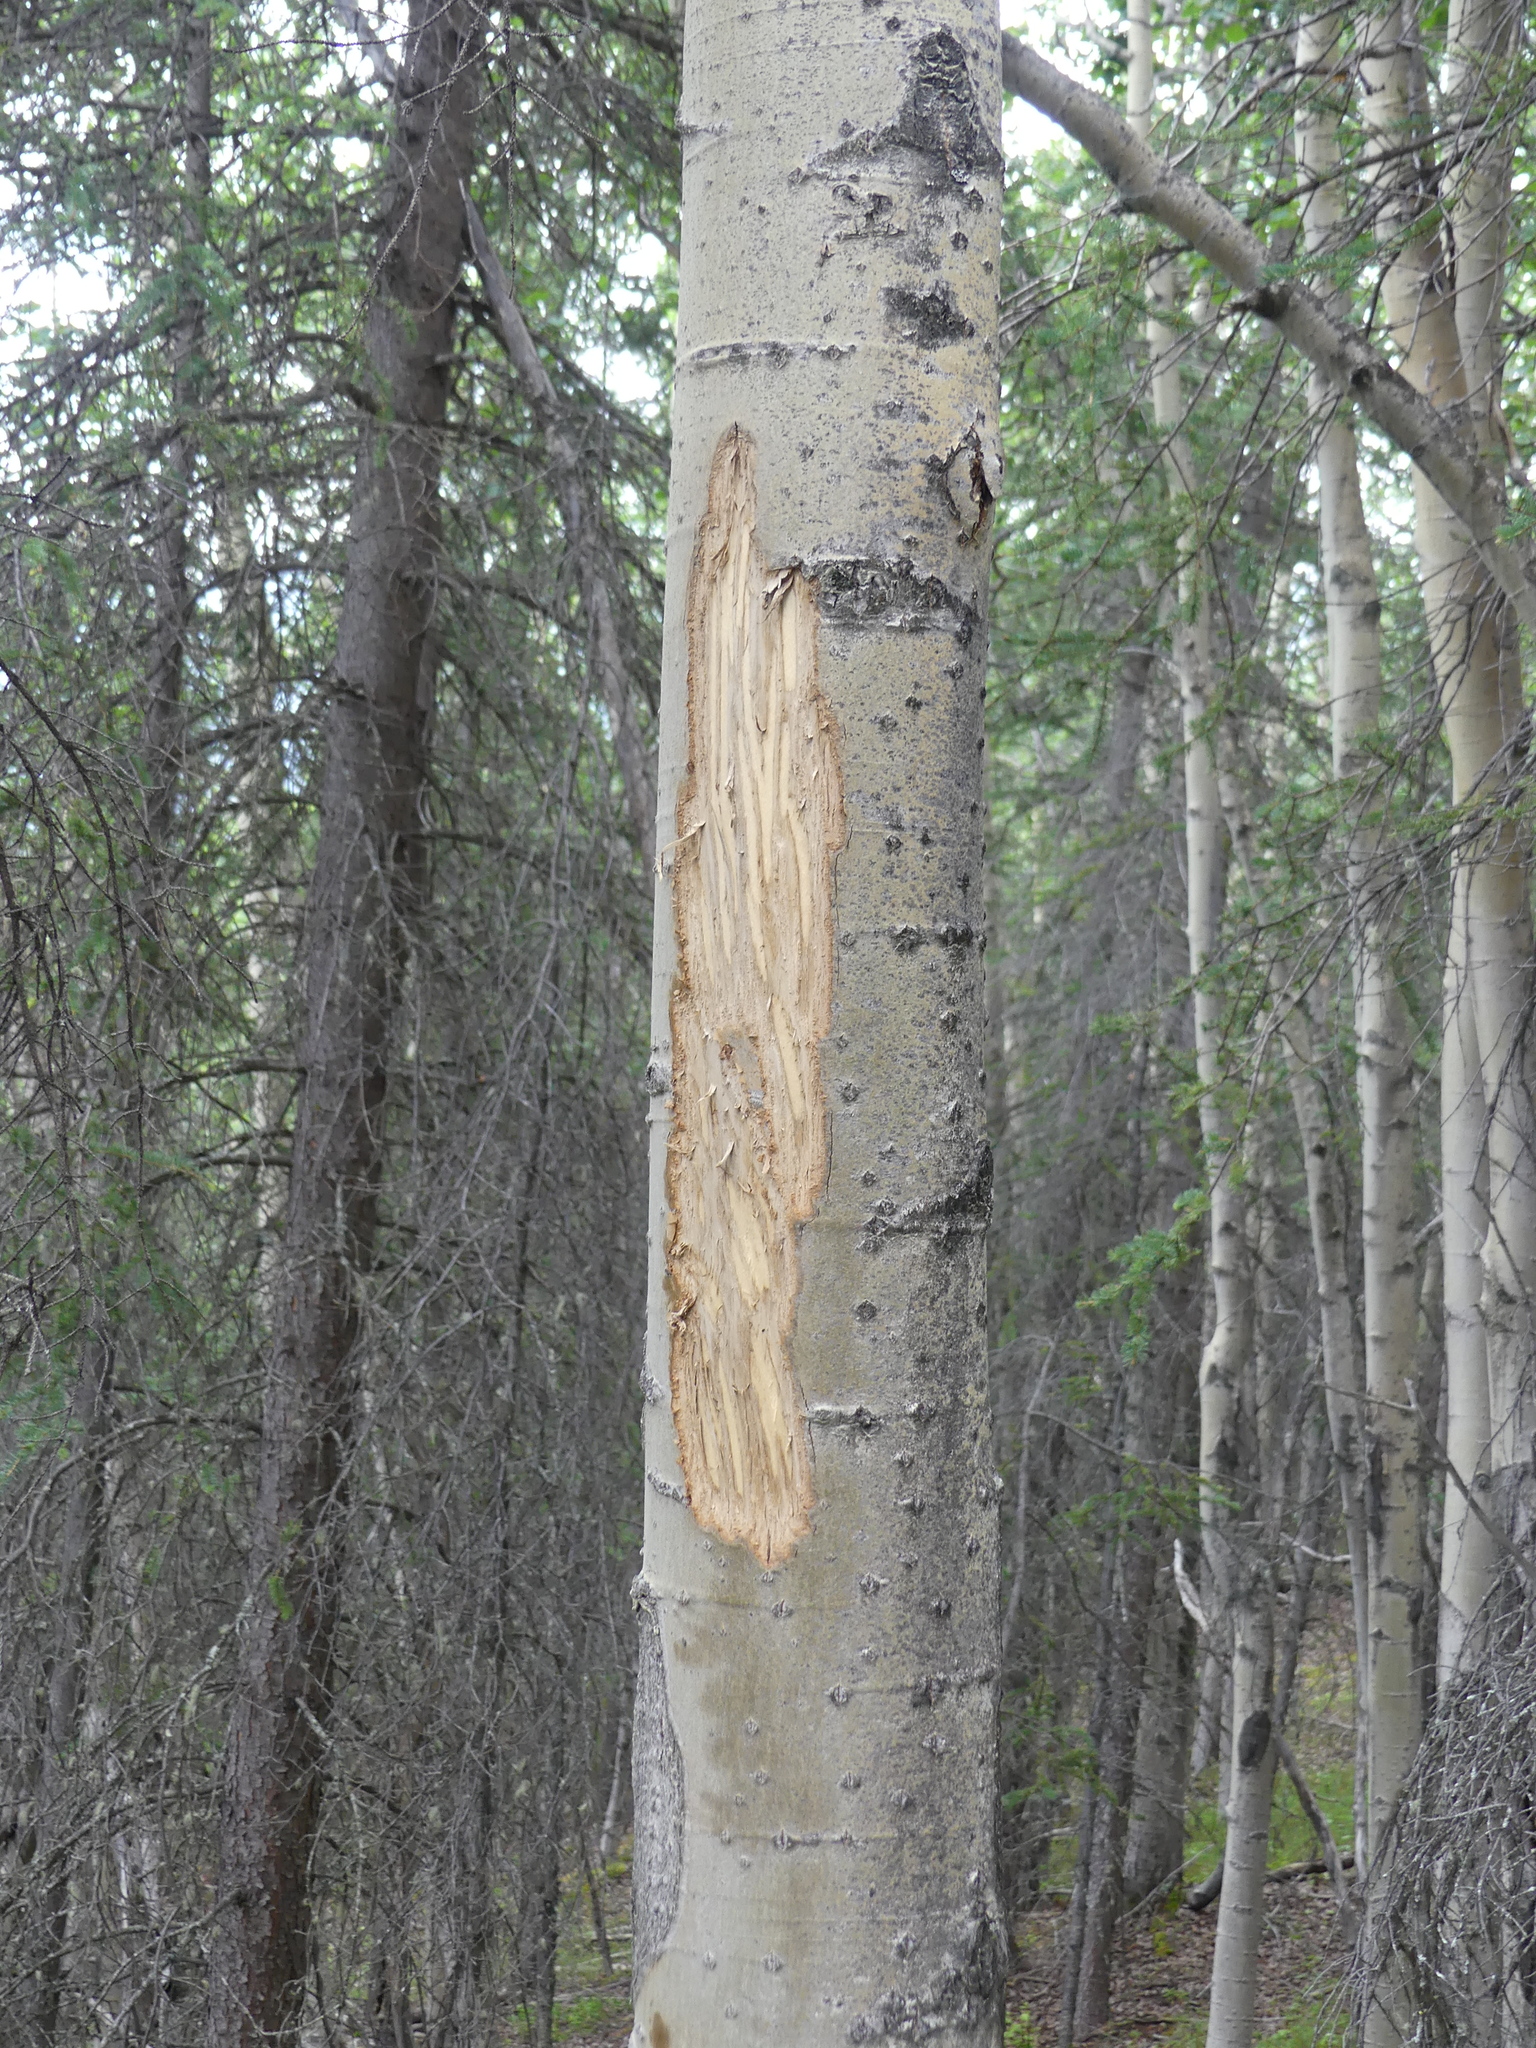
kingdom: Animalia
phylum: Chordata
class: Mammalia
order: Rodentia
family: Erethizontidae
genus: Erethizon
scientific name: Erethizon dorsatus
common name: North american porcupine
